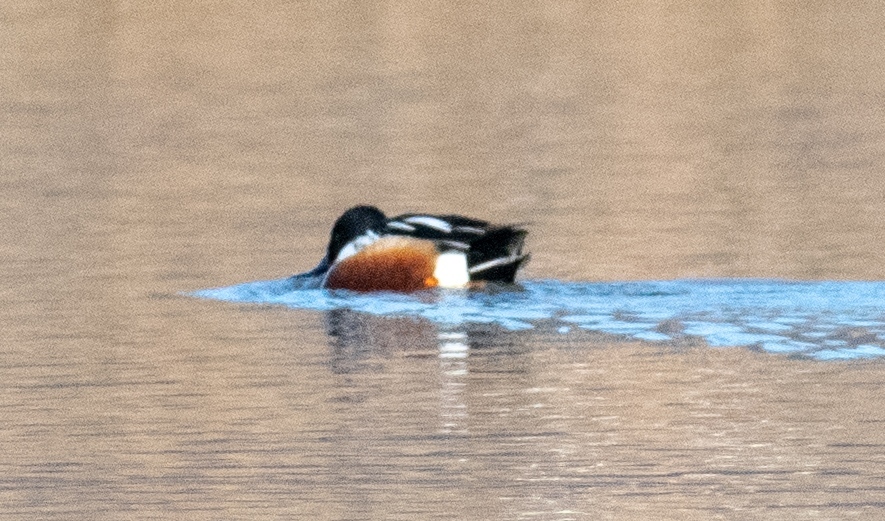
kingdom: Animalia
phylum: Chordata
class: Aves
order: Anseriformes
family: Anatidae
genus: Spatula
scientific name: Spatula clypeata
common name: Northern shoveler
